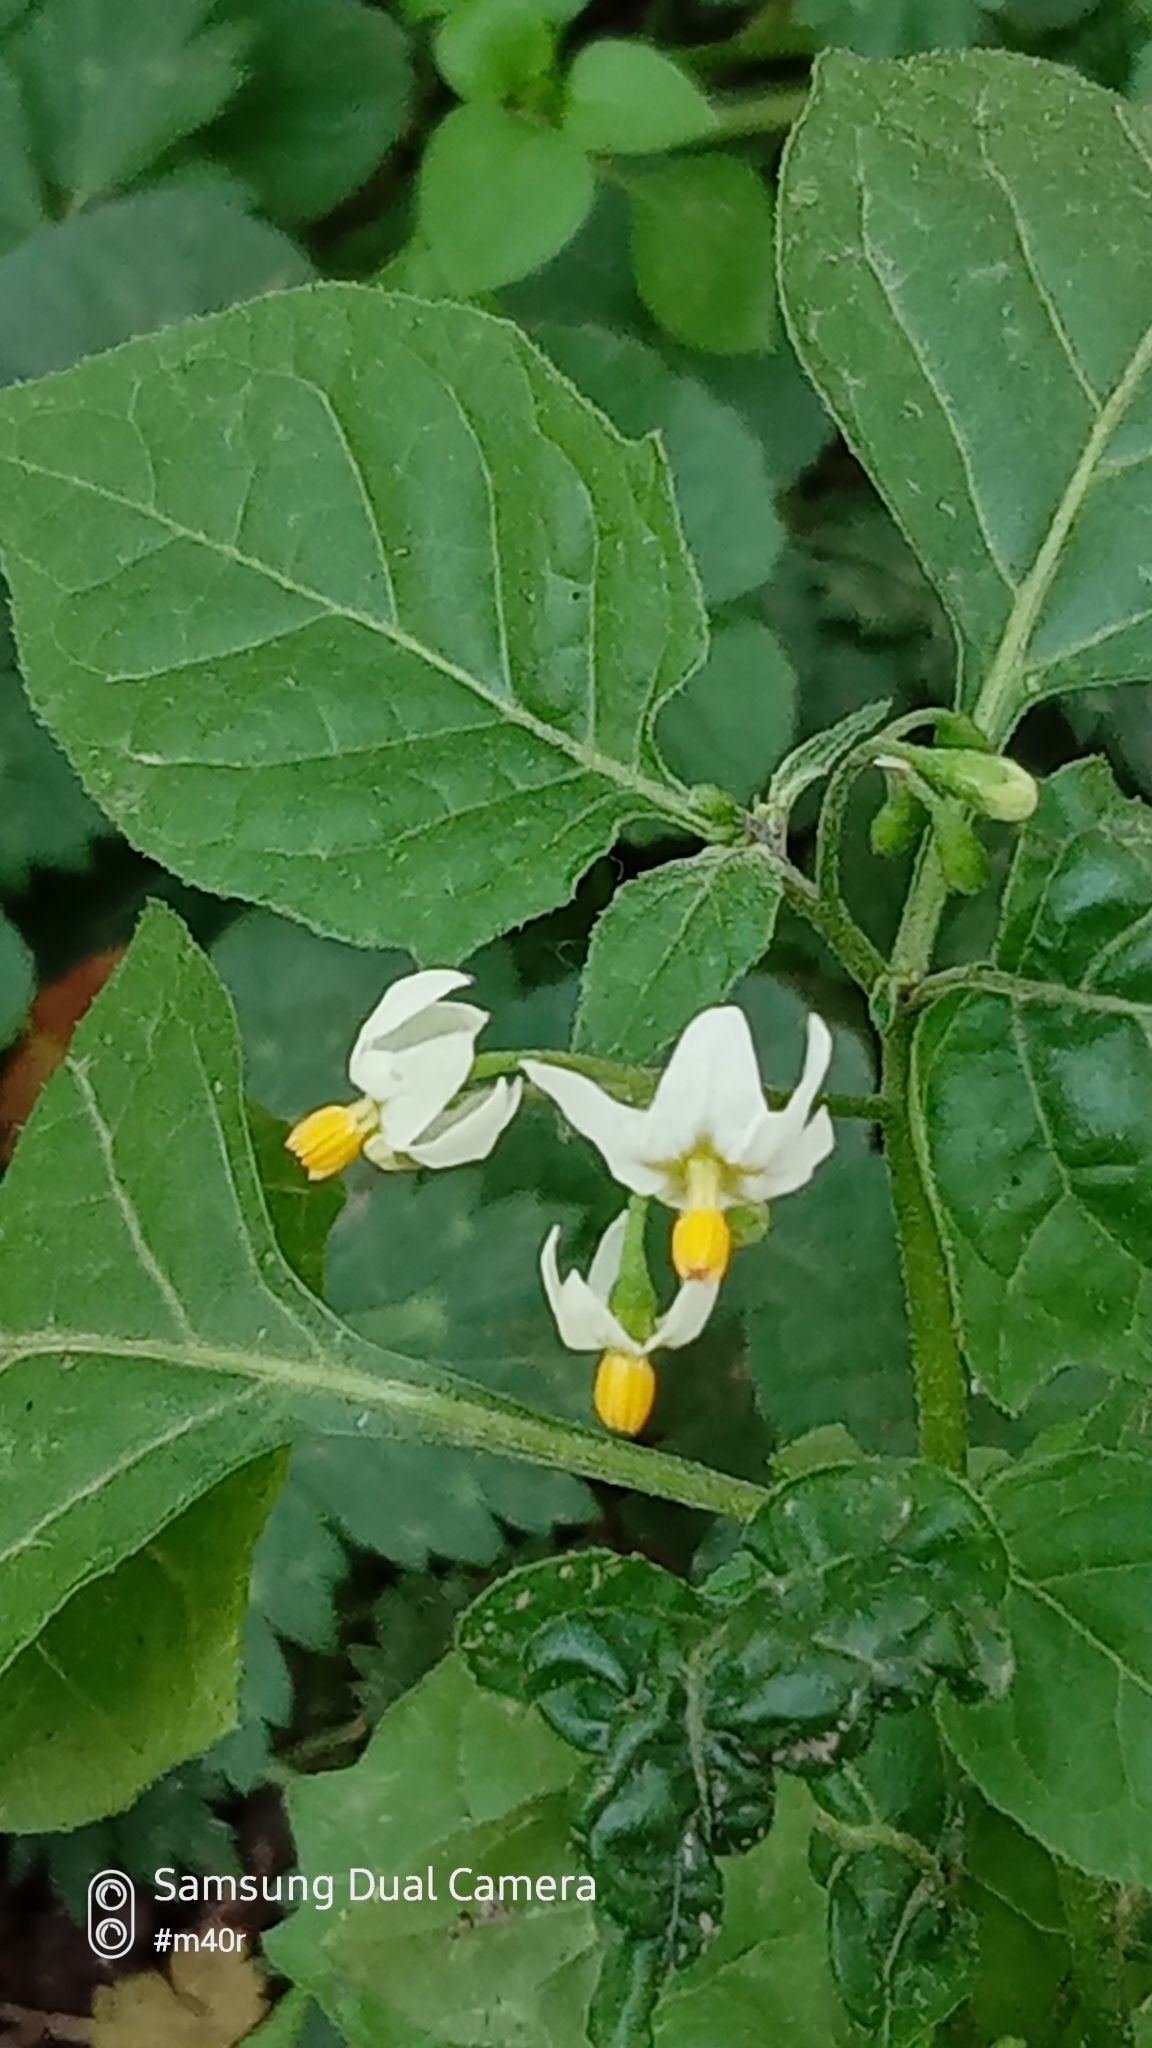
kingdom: Plantae
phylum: Tracheophyta
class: Magnoliopsida
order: Solanales
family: Solanaceae
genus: Solanum
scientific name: Solanum nigrum
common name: Black nightshade
